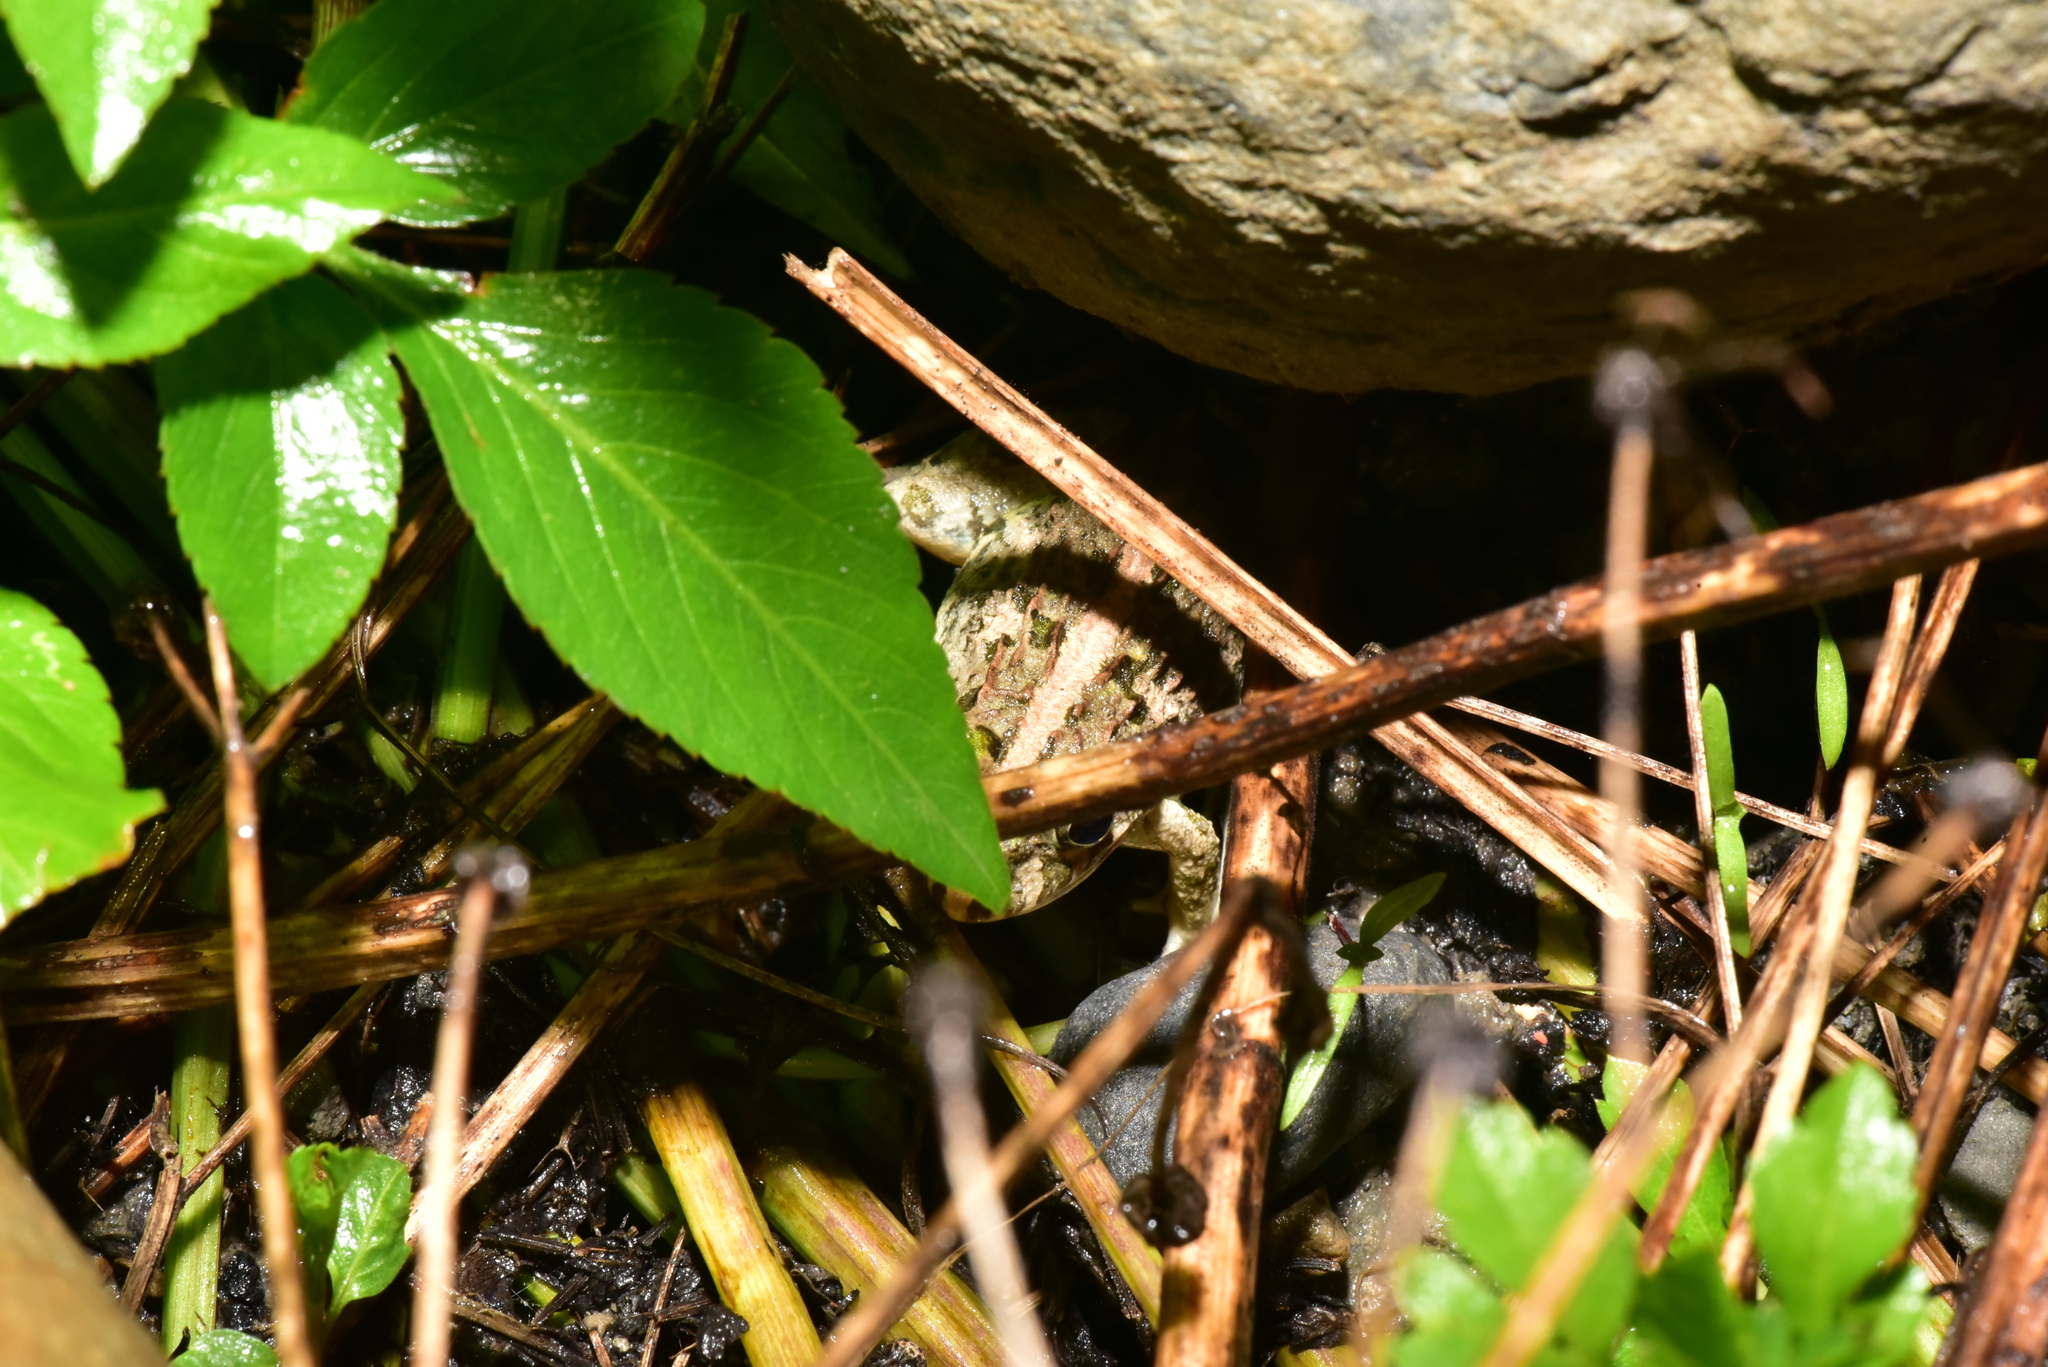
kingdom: Animalia
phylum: Chordata
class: Amphibia
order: Anura
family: Dicroglossidae
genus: Fejervarya
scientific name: Fejervarya limnocharis
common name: Asian grass frog/common pond frog/field frog/grass frog/indian rice frog
